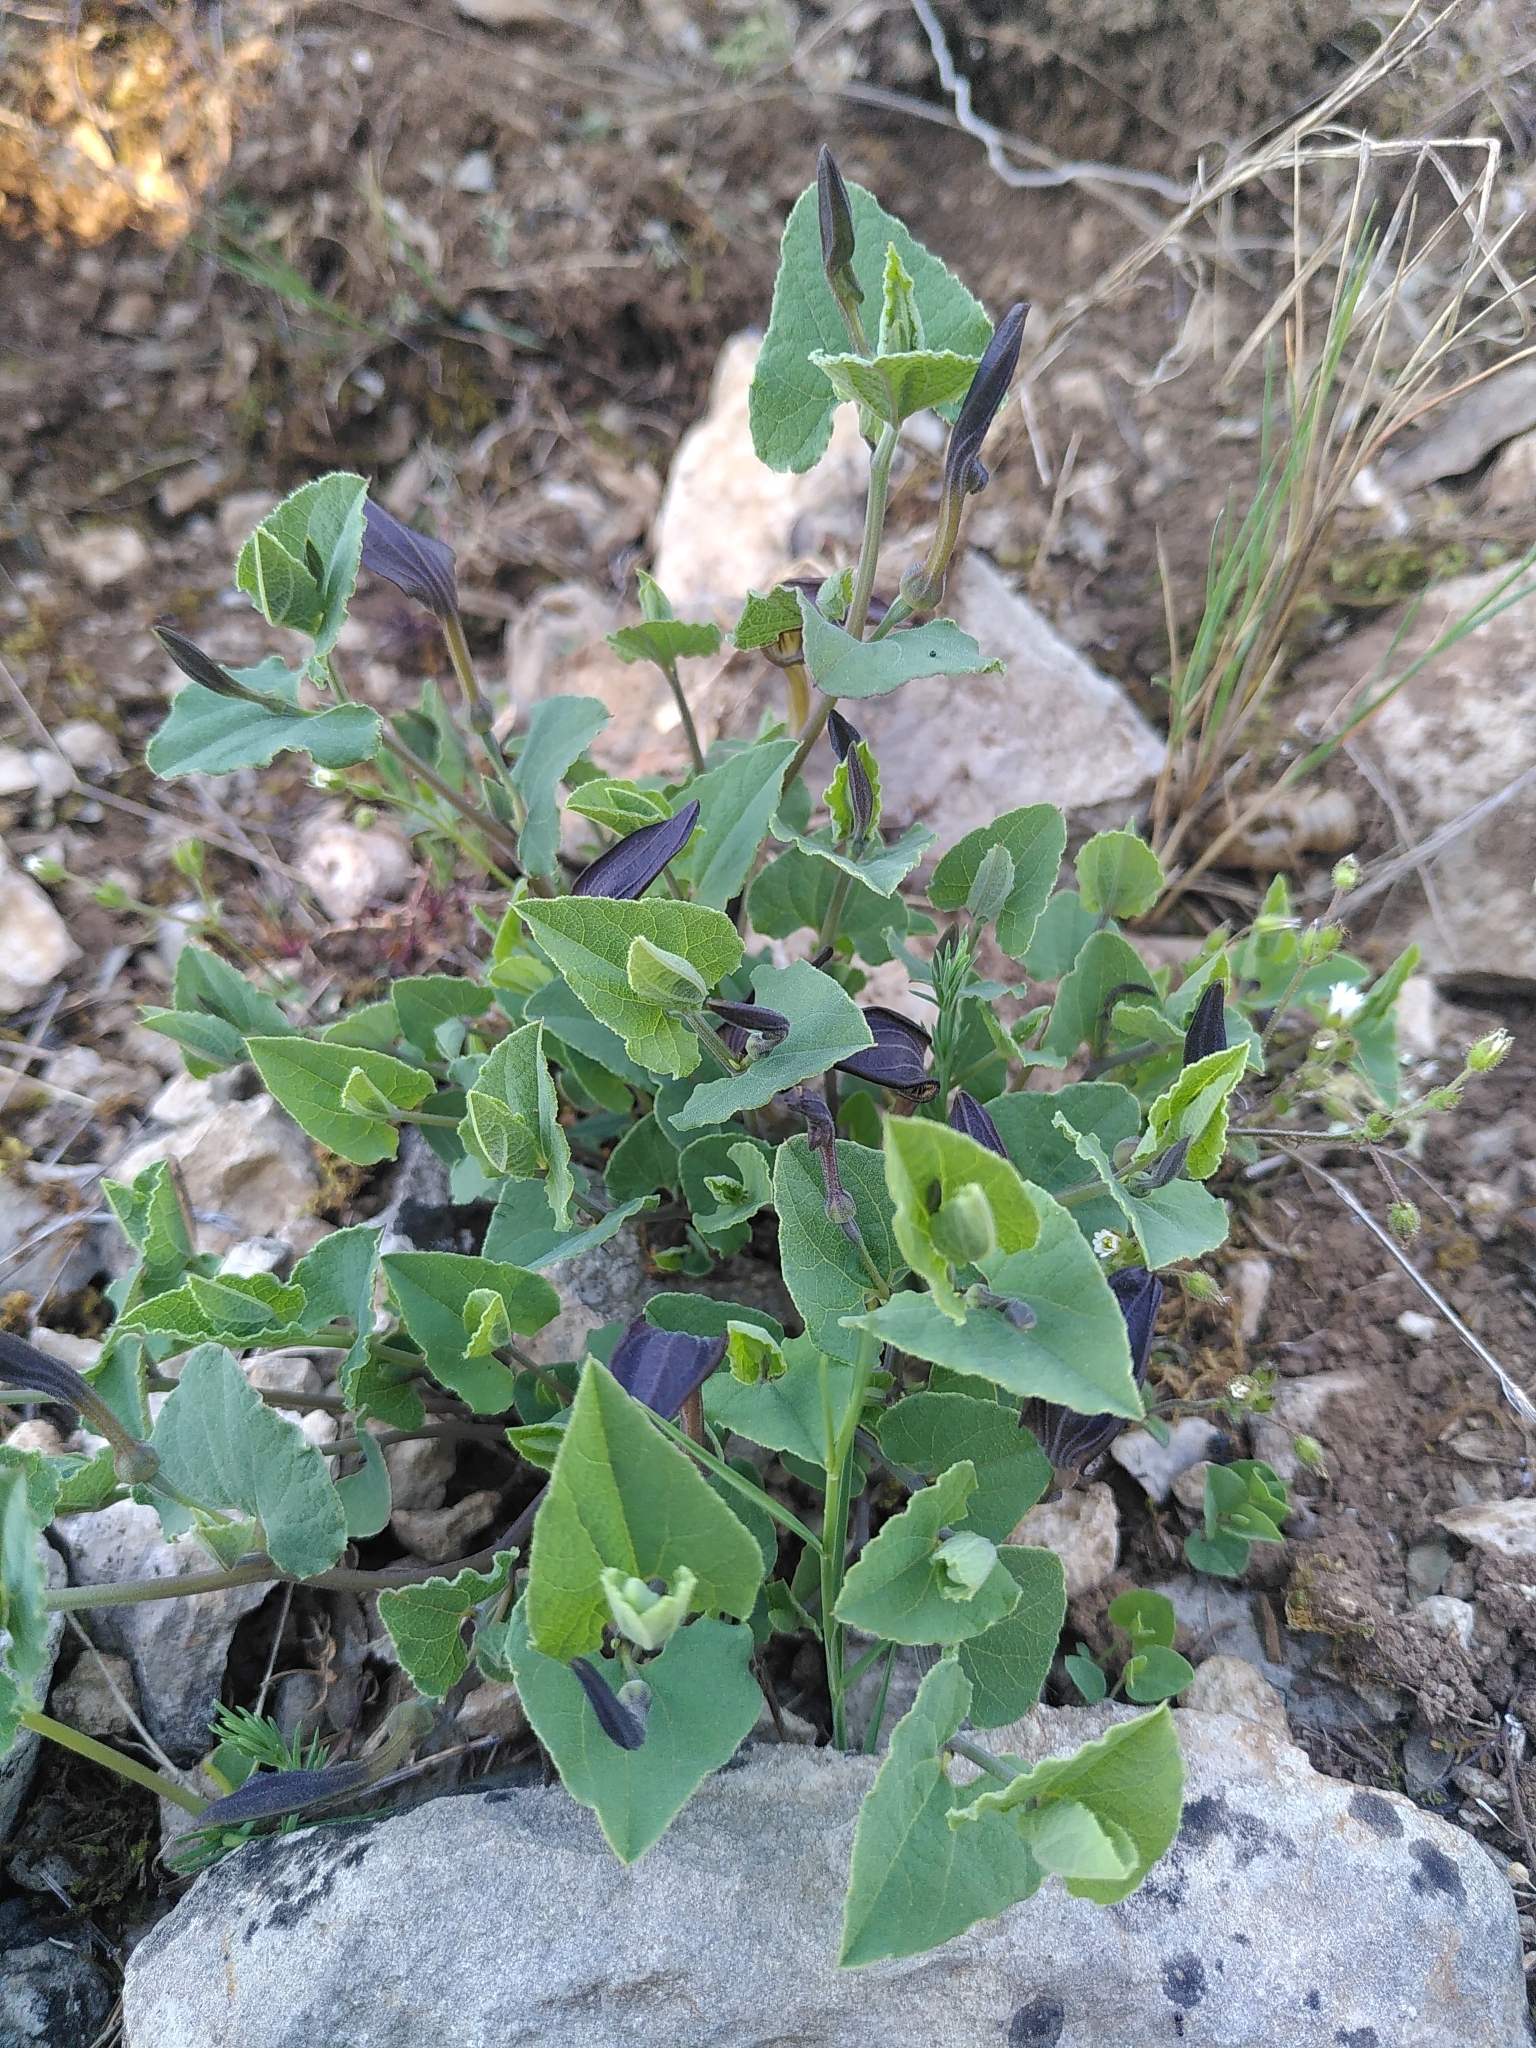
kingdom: Plantae
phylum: Tracheophyta
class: Magnoliopsida
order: Piperales
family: Aristolochiaceae
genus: Aristolochia
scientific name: Aristolochia pistolochia
